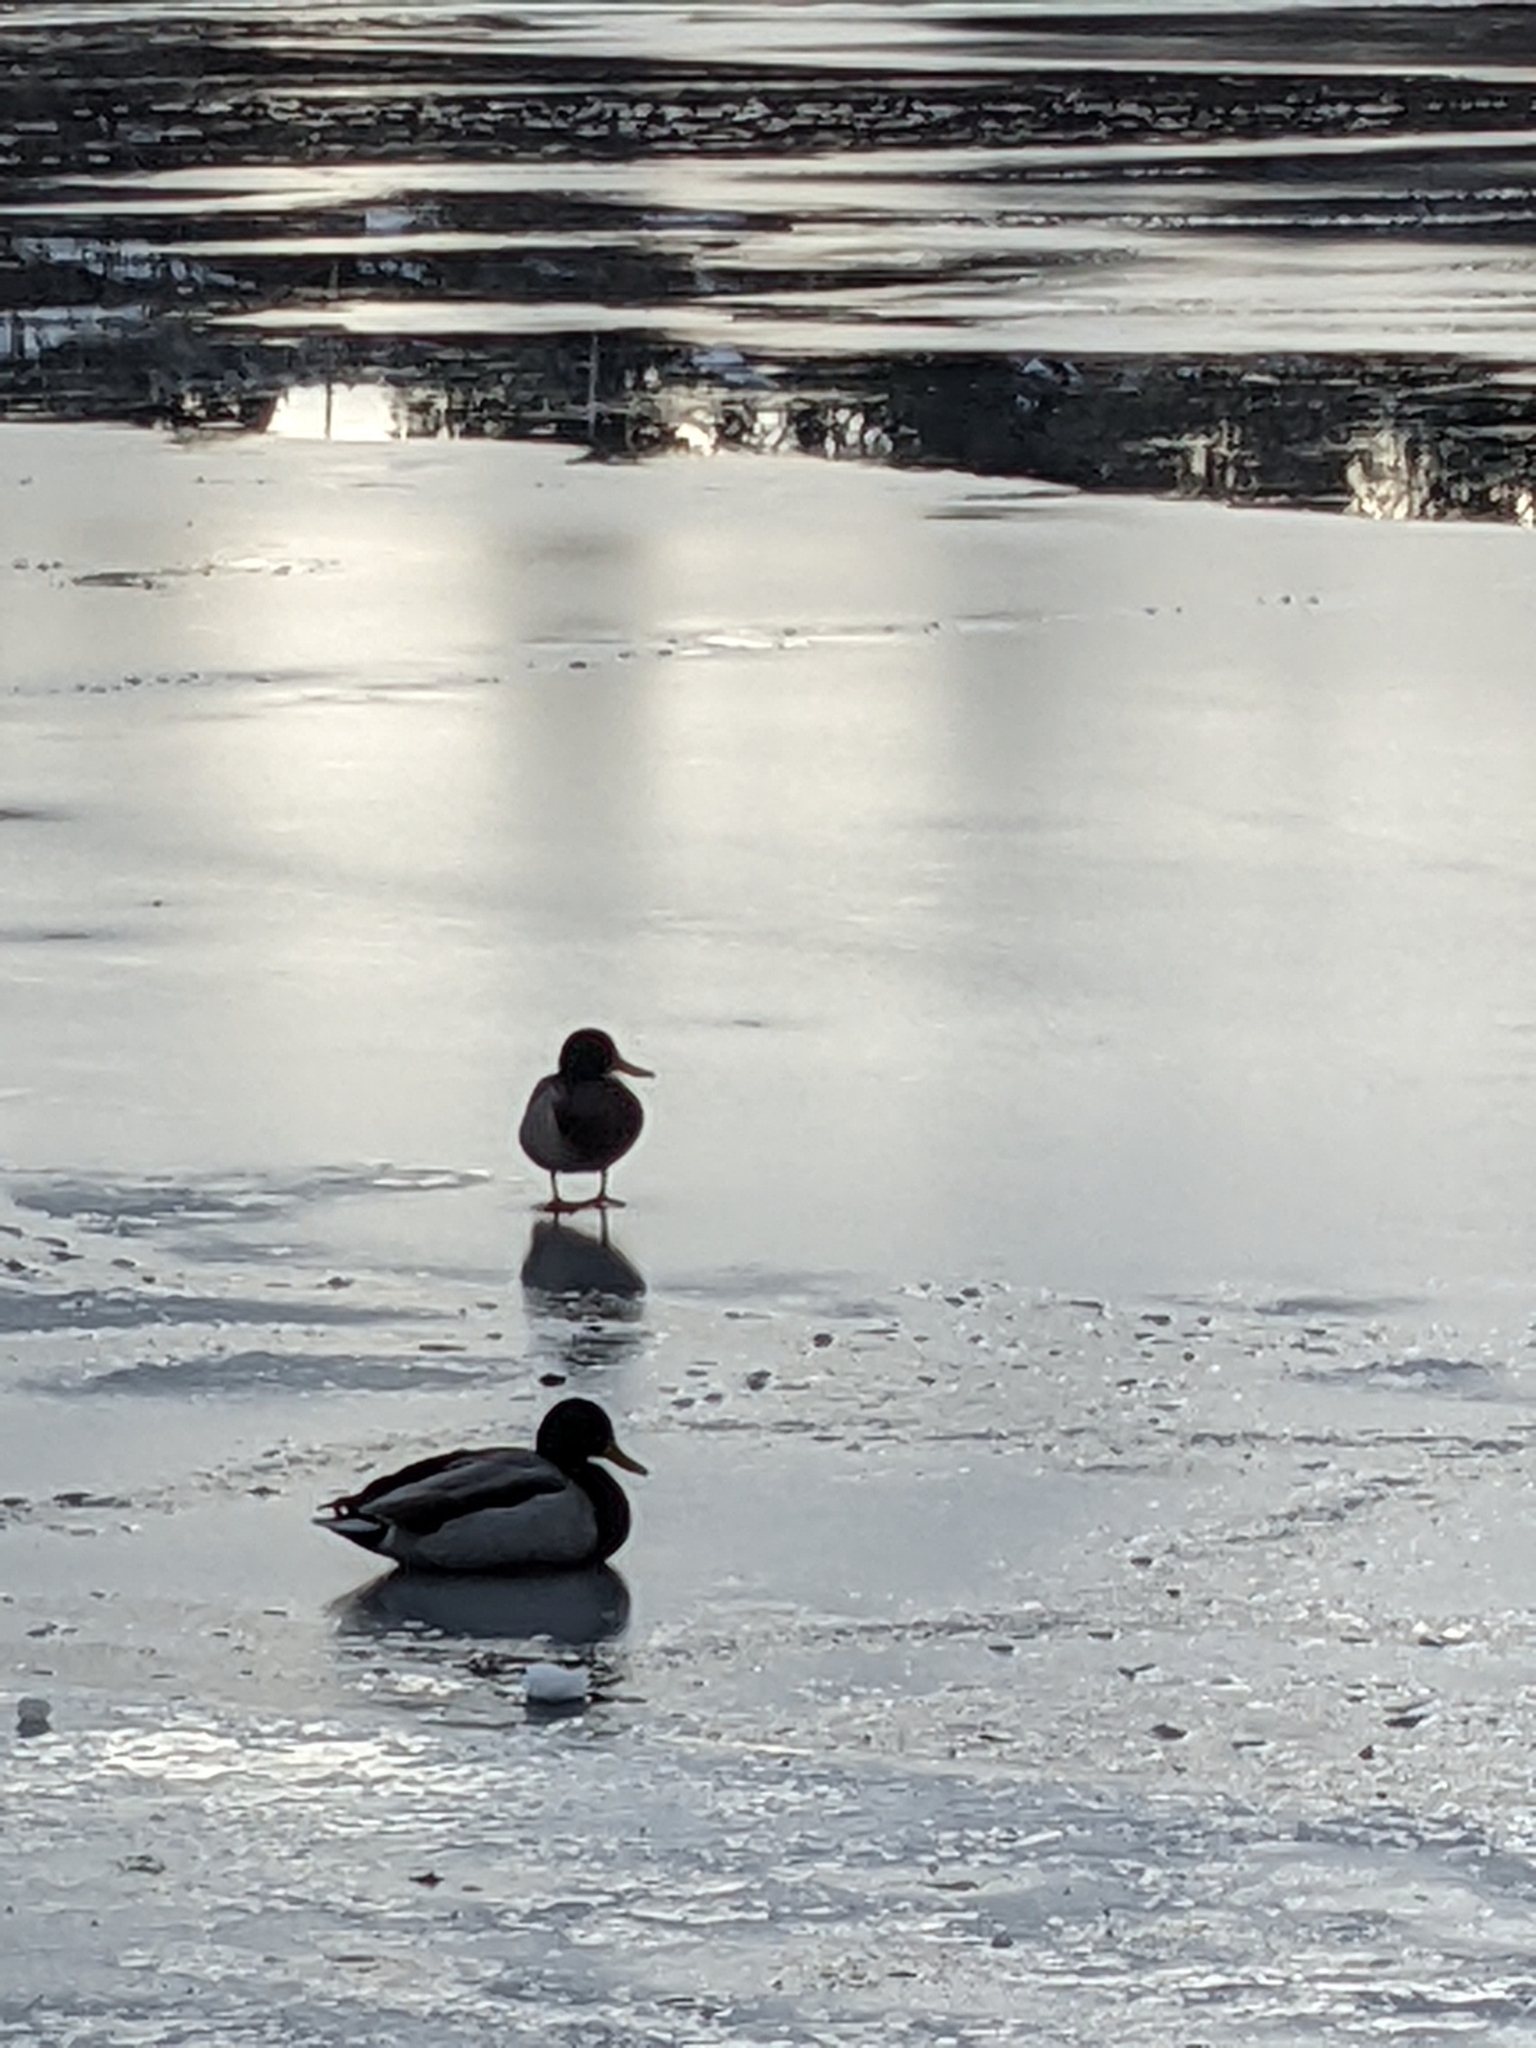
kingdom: Animalia
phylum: Chordata
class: Aves
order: Anseriformes
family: Anatidae
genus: Anas
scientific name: Anas platyrhynchos
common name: Mallard
